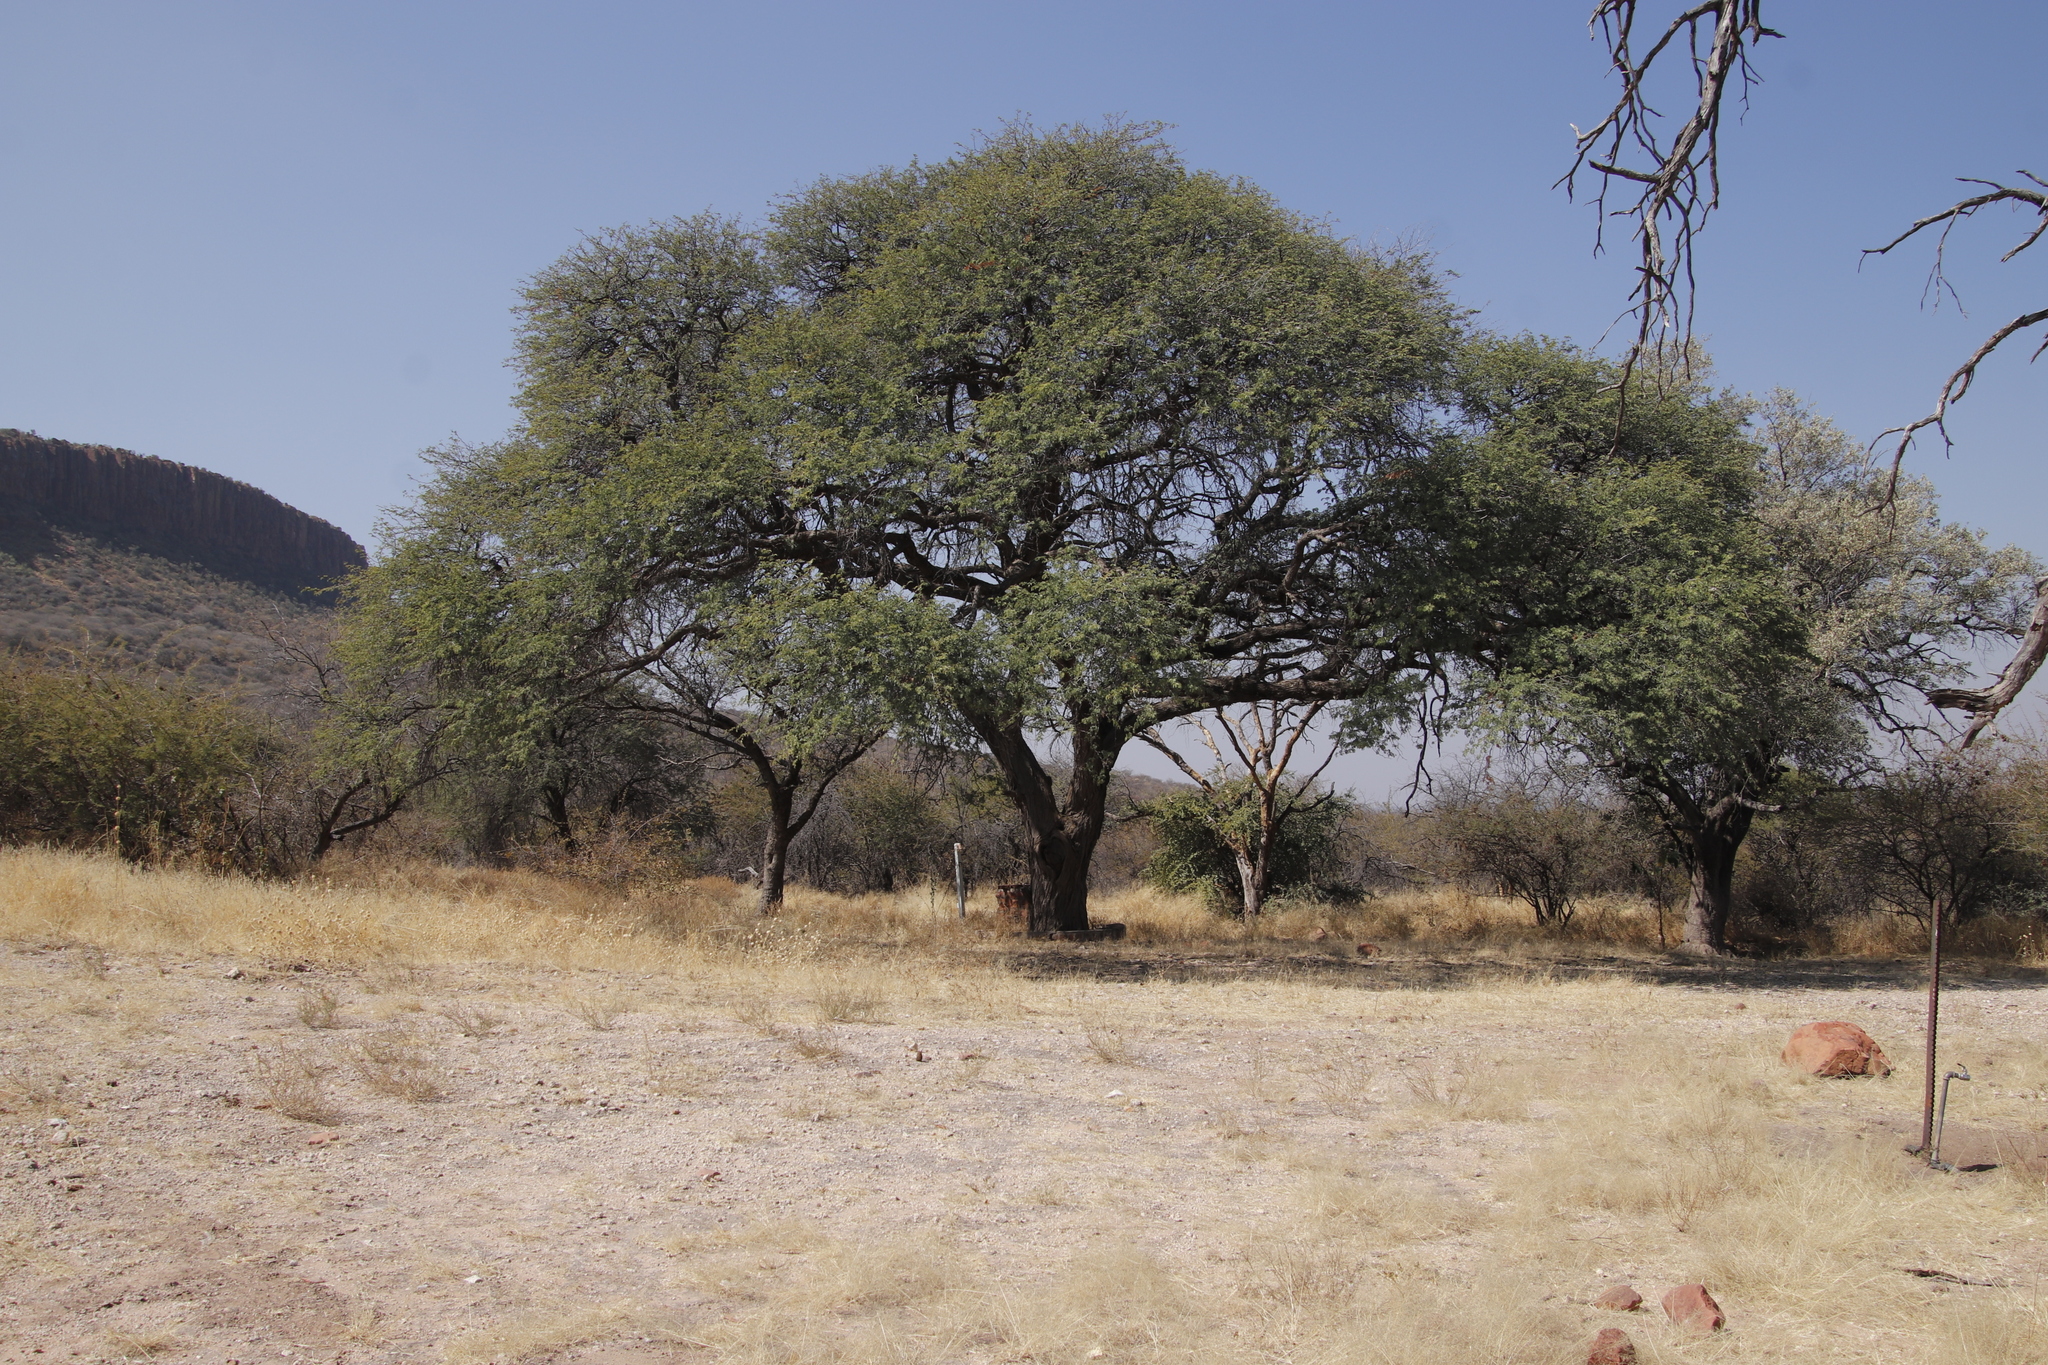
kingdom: Plantae
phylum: Tracheophyta
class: Magnoliopsida
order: Fabales
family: Fabaceae
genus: Vachellia
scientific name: Vachellia erioloba
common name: Camel thorn
